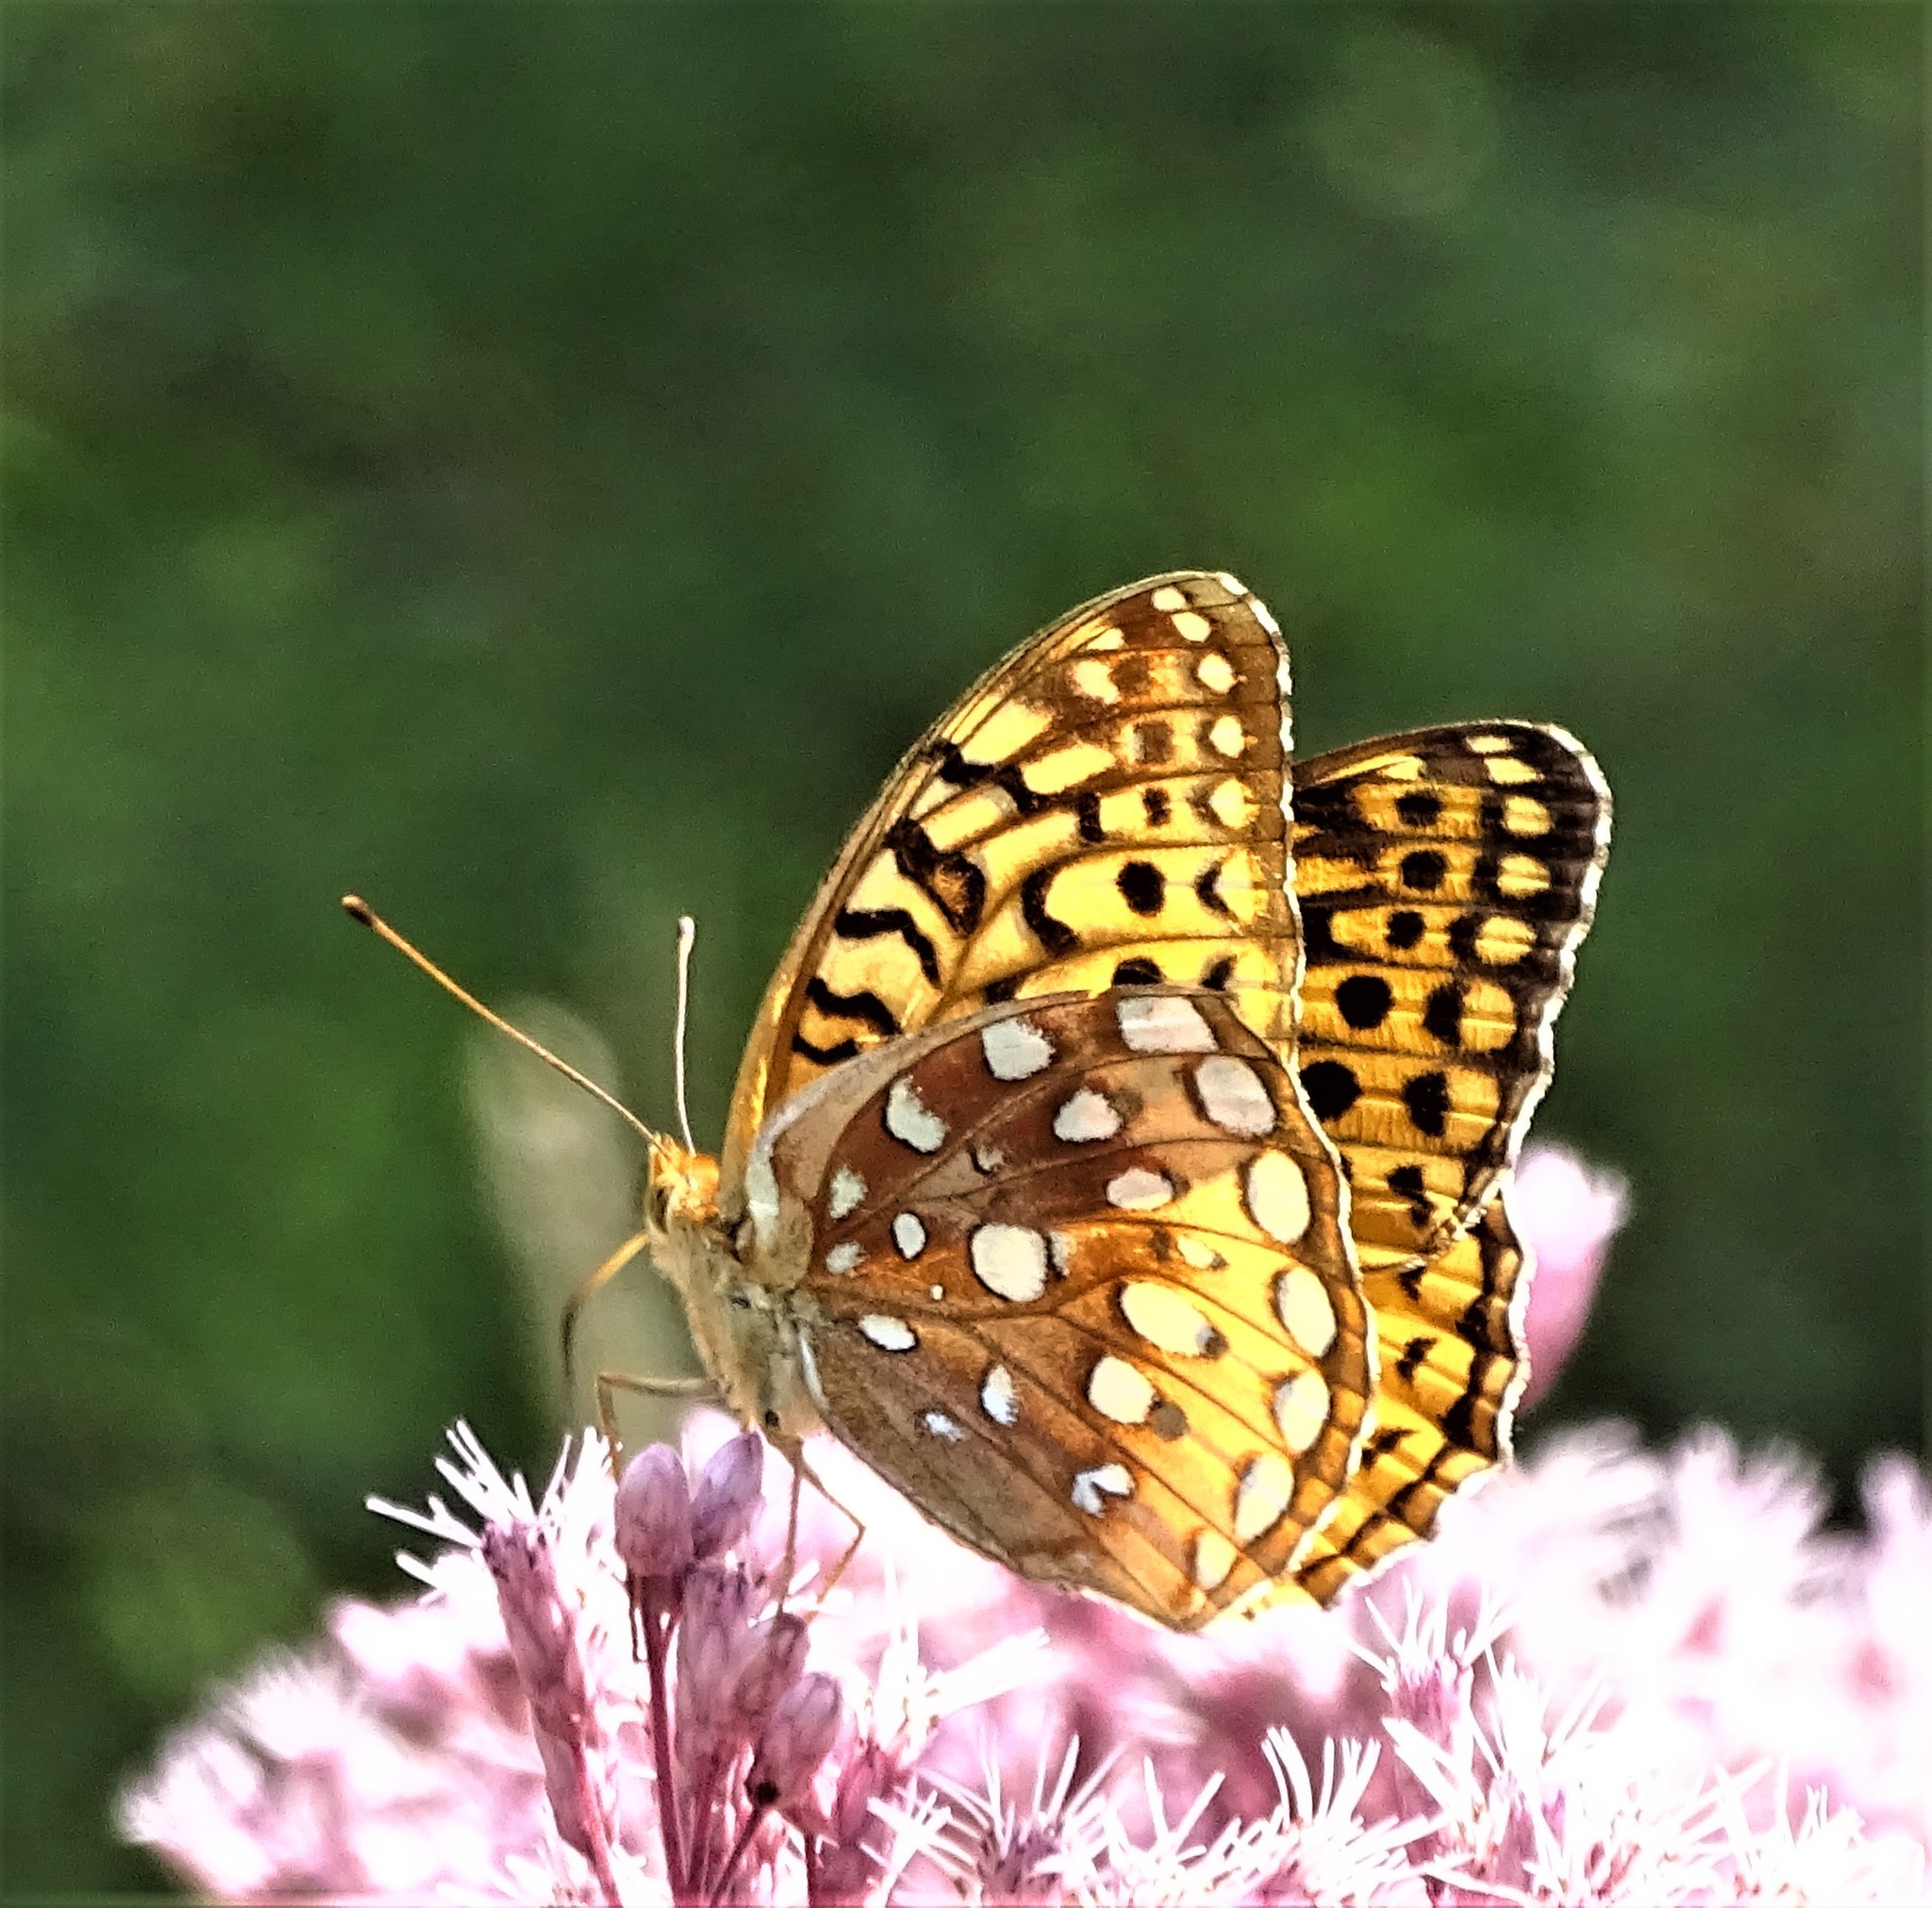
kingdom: Animalia
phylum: Arthropoda
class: Insecta
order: Lepidoptera
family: Nymphalidae
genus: Speyeria
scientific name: Speyeria cybele
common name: Great spangled fritillary
